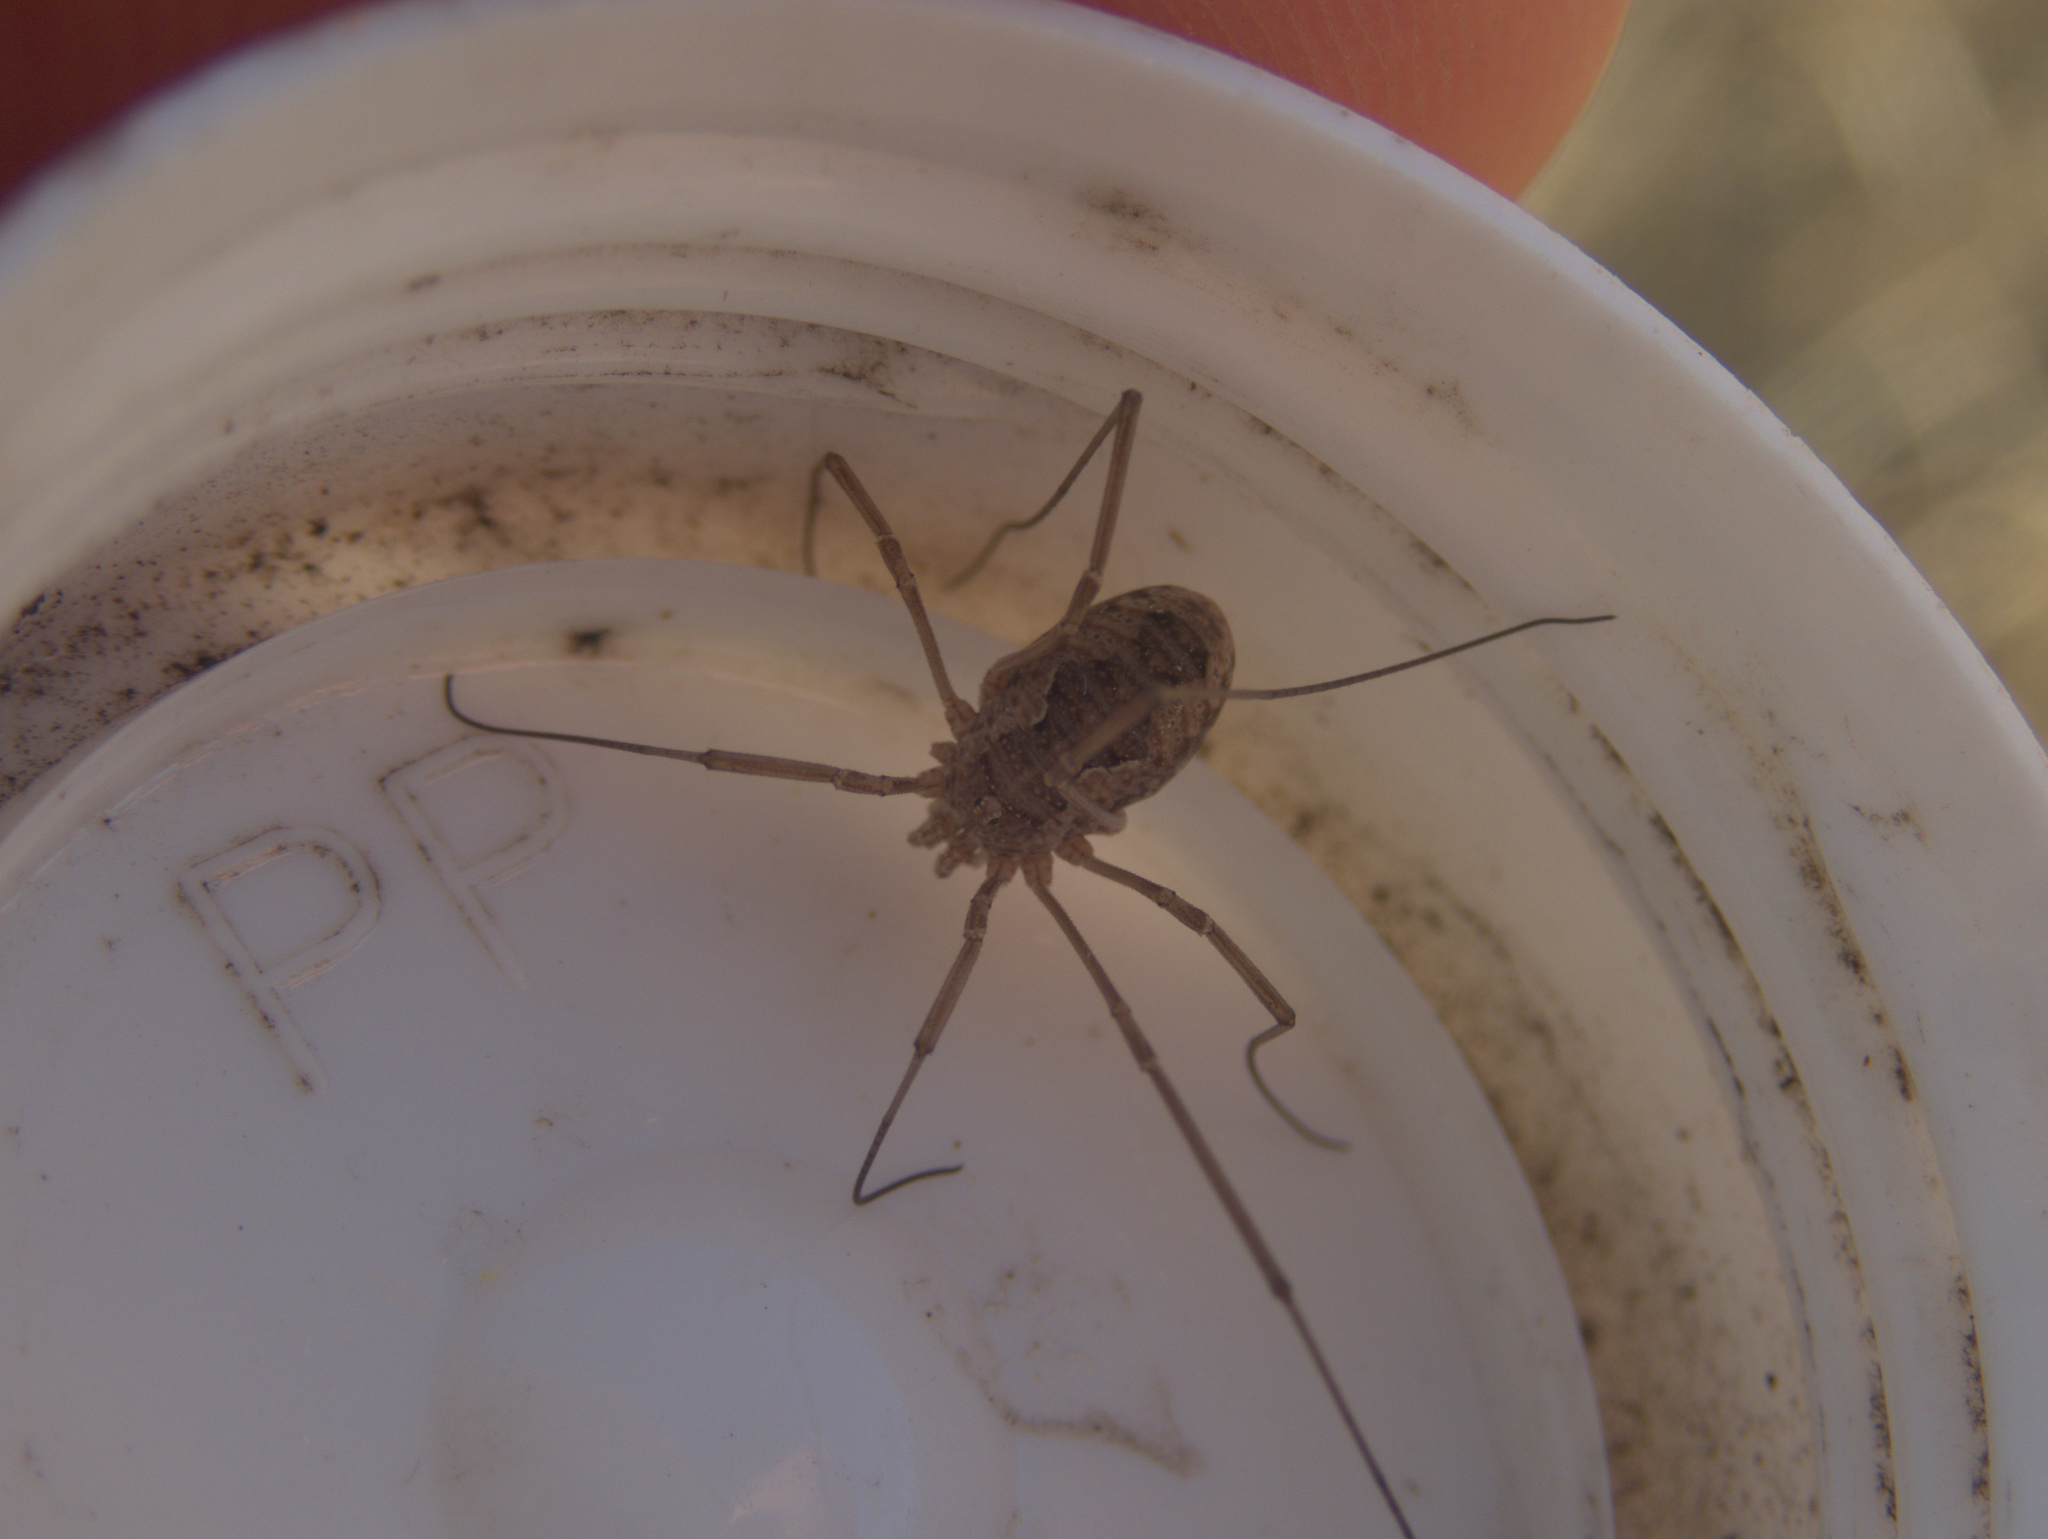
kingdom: Animalia
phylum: Arthropoda
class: Arachnida
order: Opiliones
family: Phalangiidae
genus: Phalangium
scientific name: Phalangium opilio
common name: Daddy longleg
